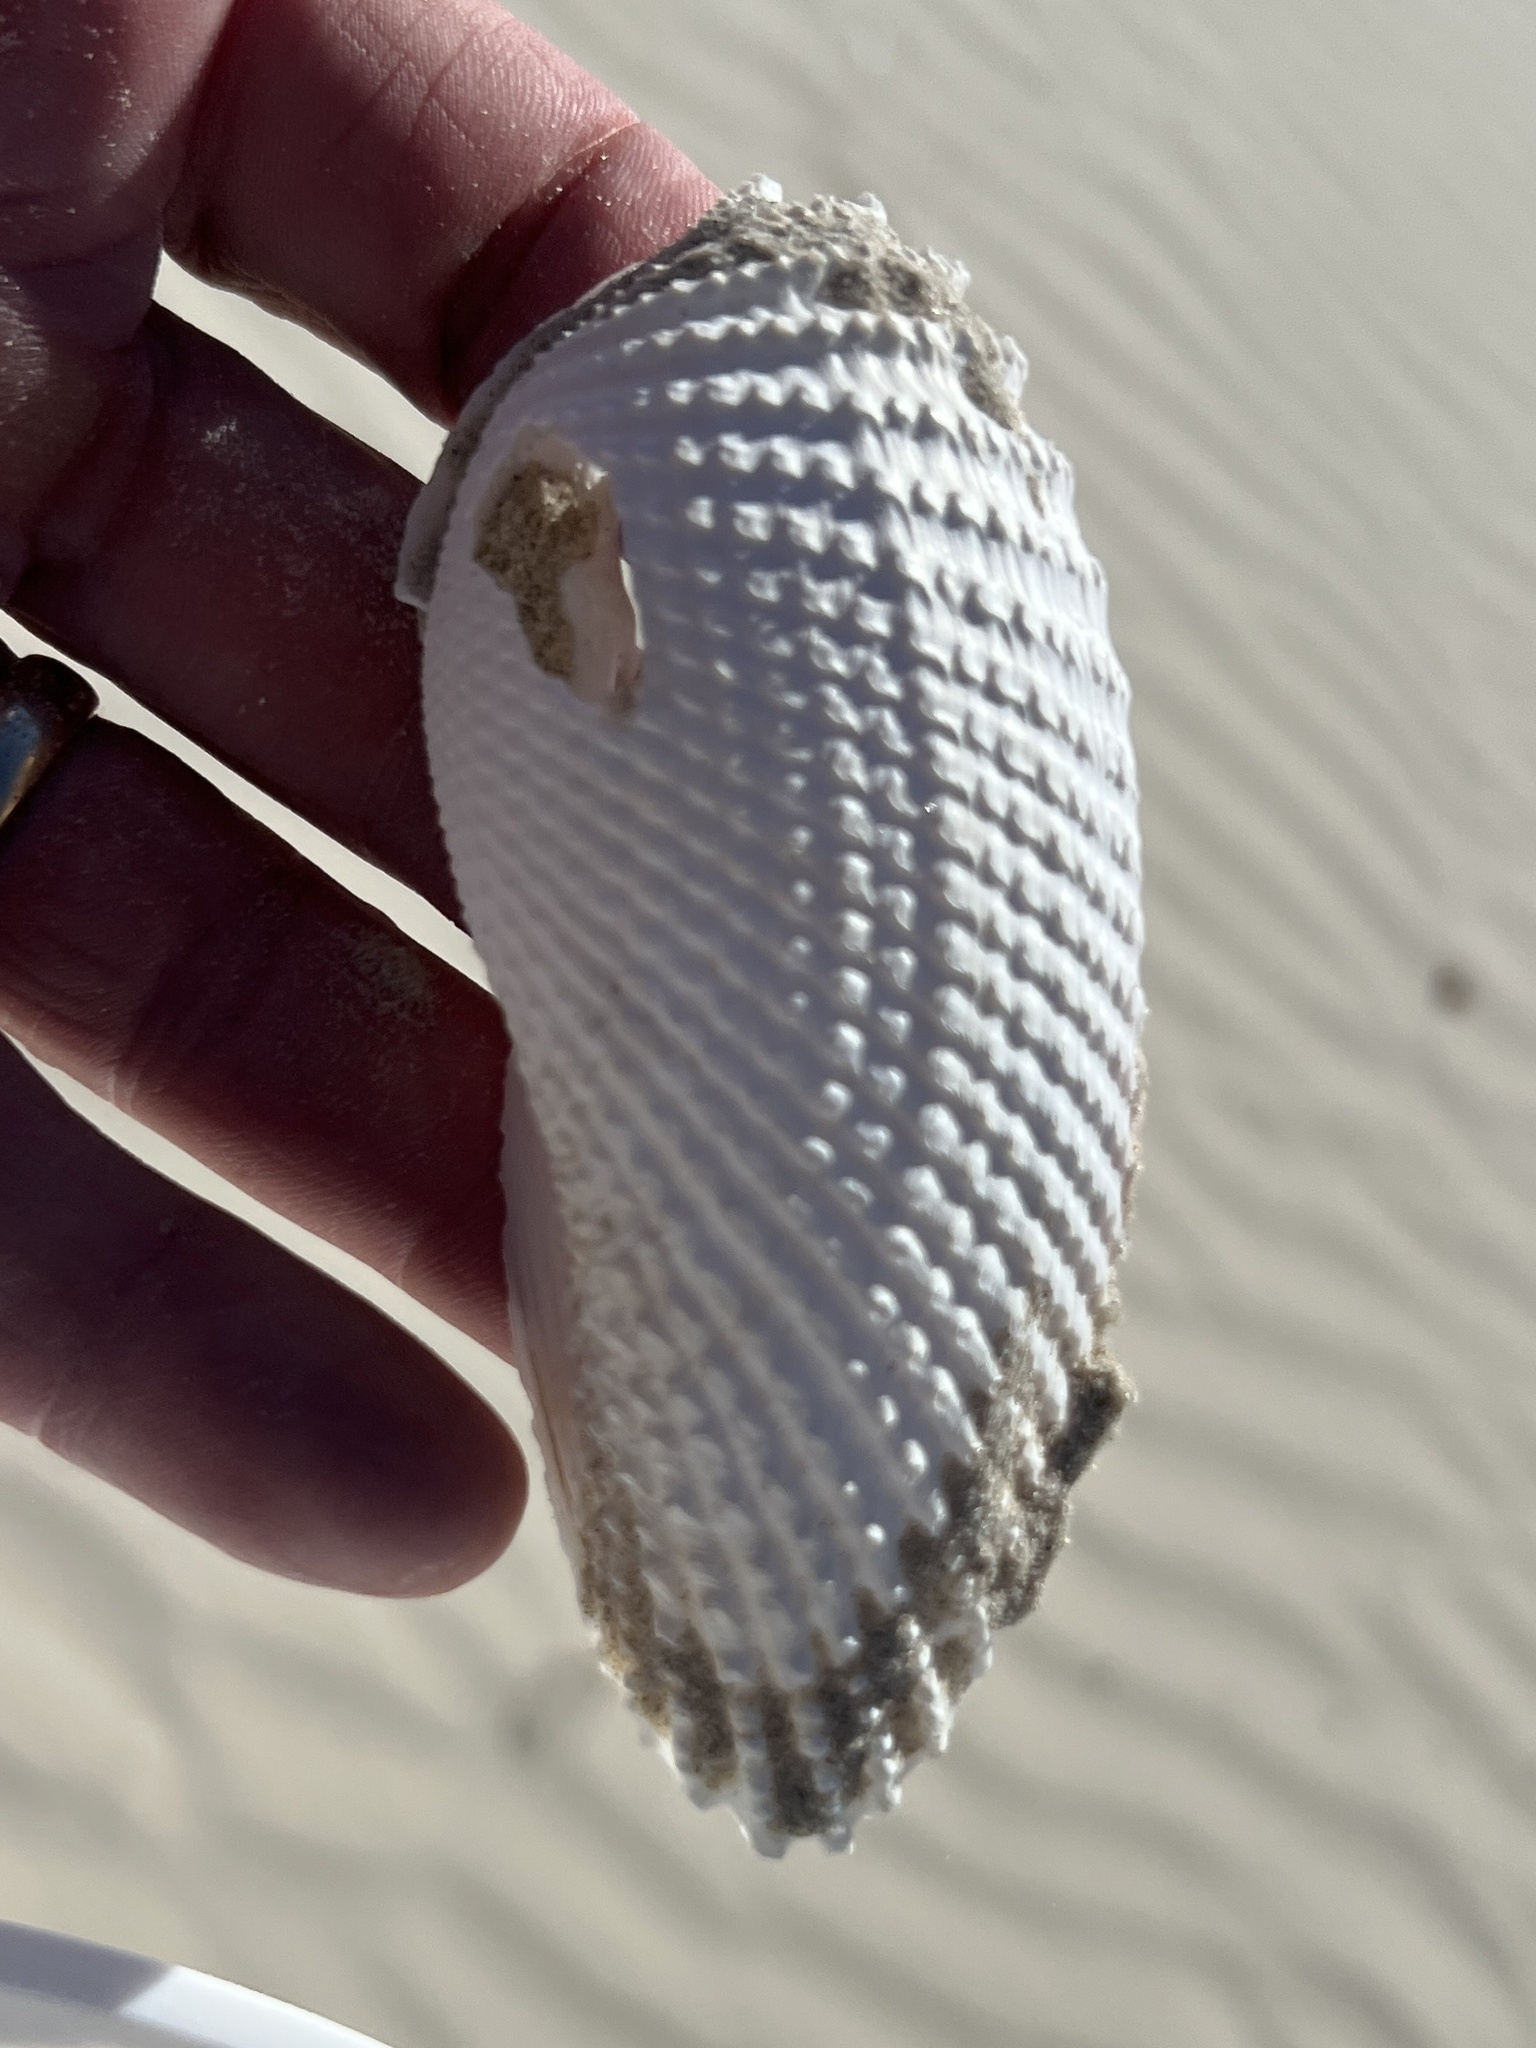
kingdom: Animalia
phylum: Mollusca
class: Bivalvia
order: Myida
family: Pholadidae
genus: Cyrtopleura
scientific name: Cyrtopleura costata
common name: Angel wing
